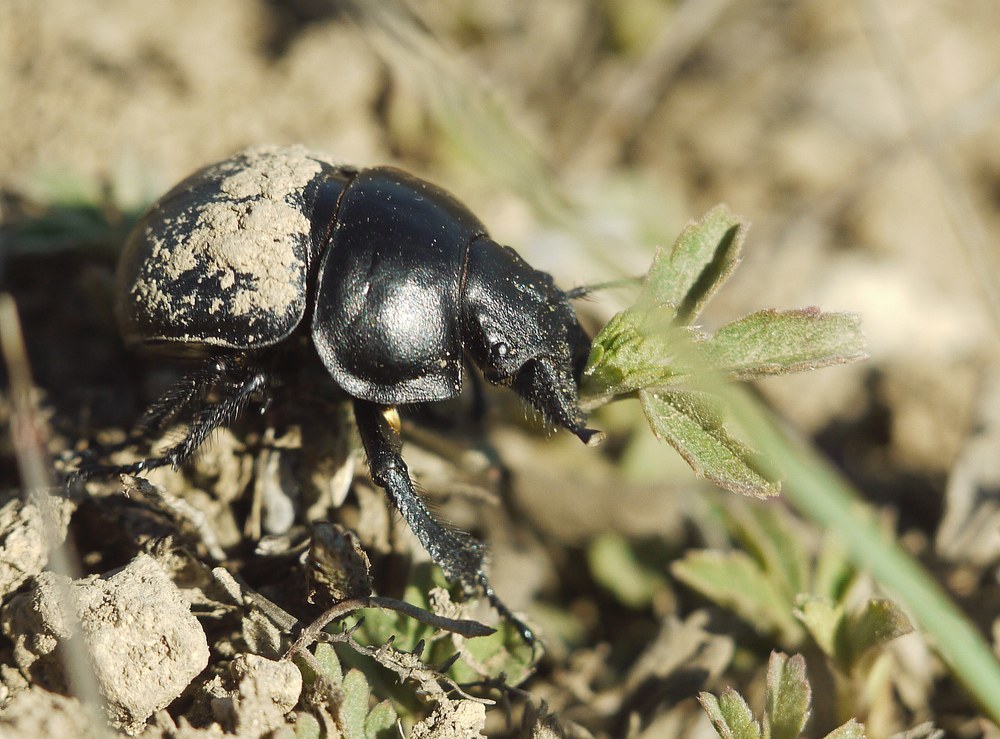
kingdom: Animalia
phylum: Arthropoda
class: Insecta
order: Coleoptera
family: Geotrupidae
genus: Lethrus
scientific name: Lethrus apterus
